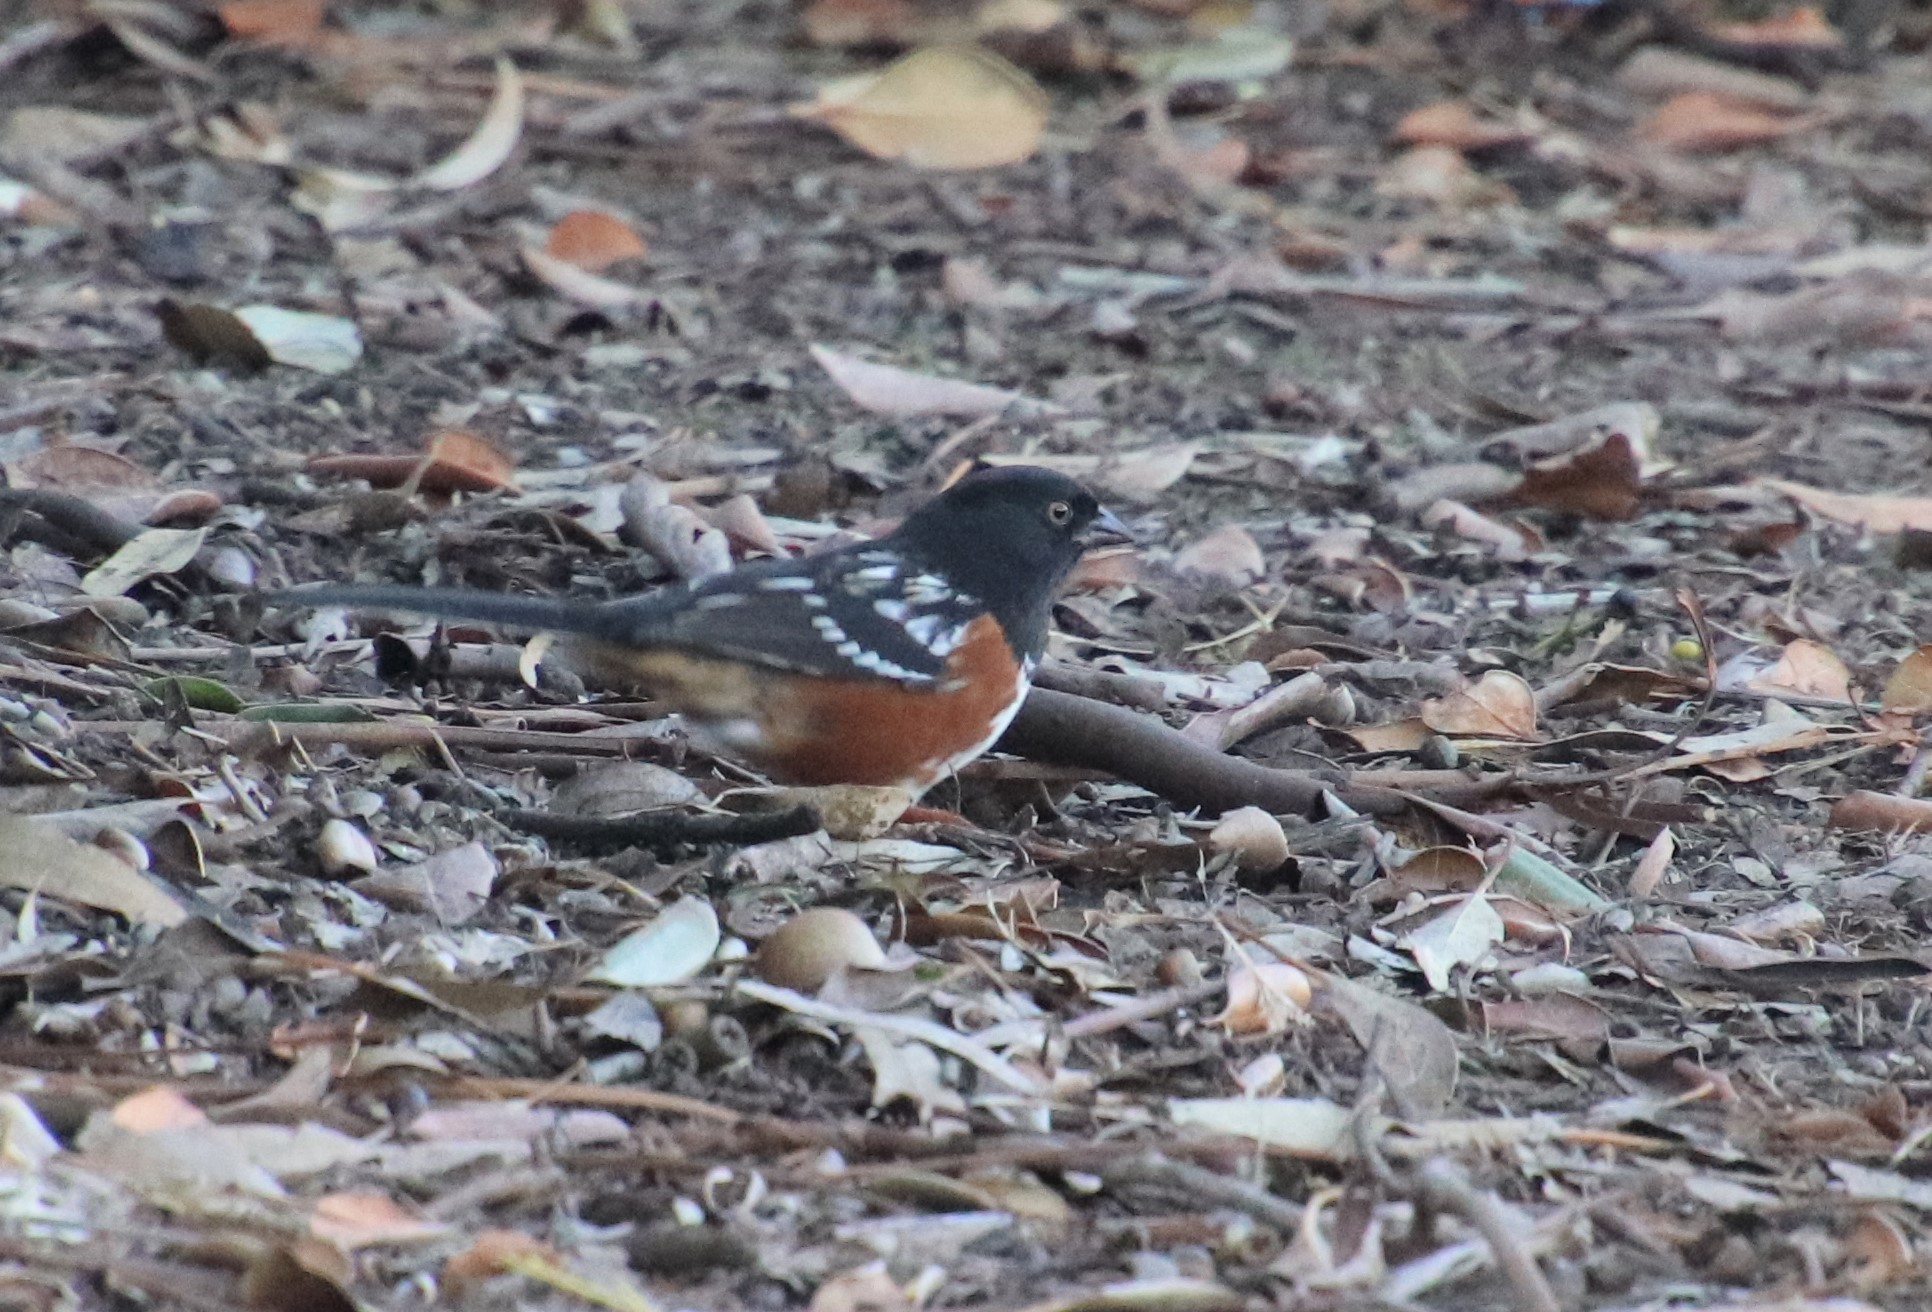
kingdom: Animalia
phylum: Chordata
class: Aves
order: Passeriformes
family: Passerellidae
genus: Pipilo
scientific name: Pipilo maculatus
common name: Spotted towhee
